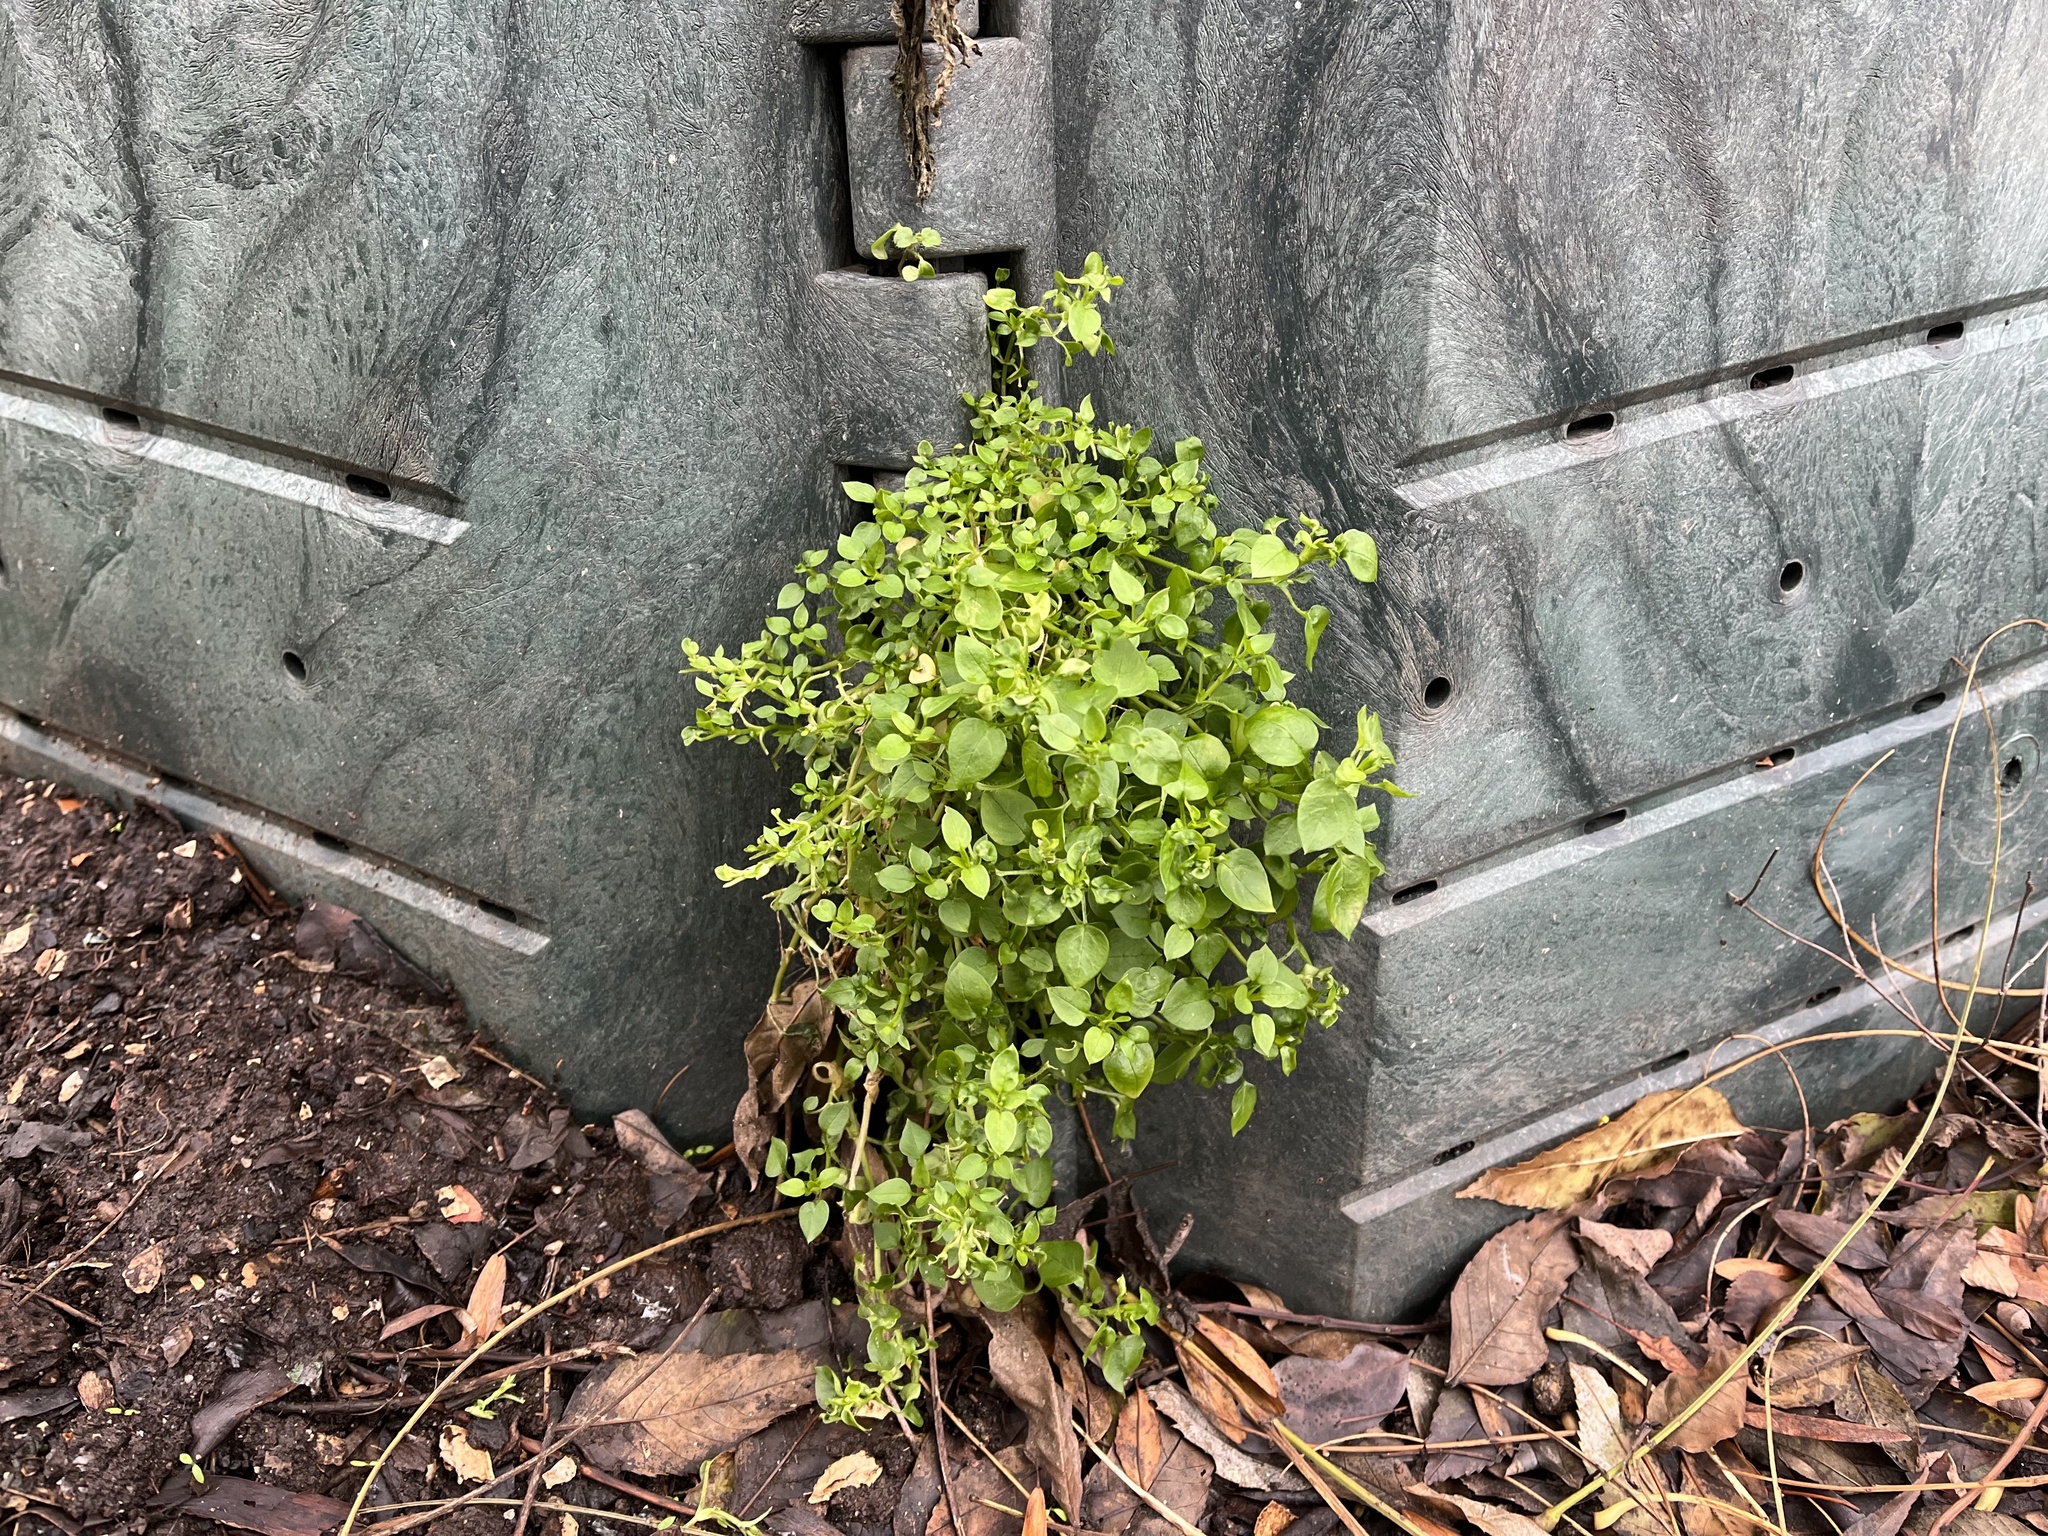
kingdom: Plantae
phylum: Tracheophyta
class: Magnoliopsida
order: Caryophyllales
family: Caryophyllaceae
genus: Stellaria
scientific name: Stellaria media
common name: Common chickweed
